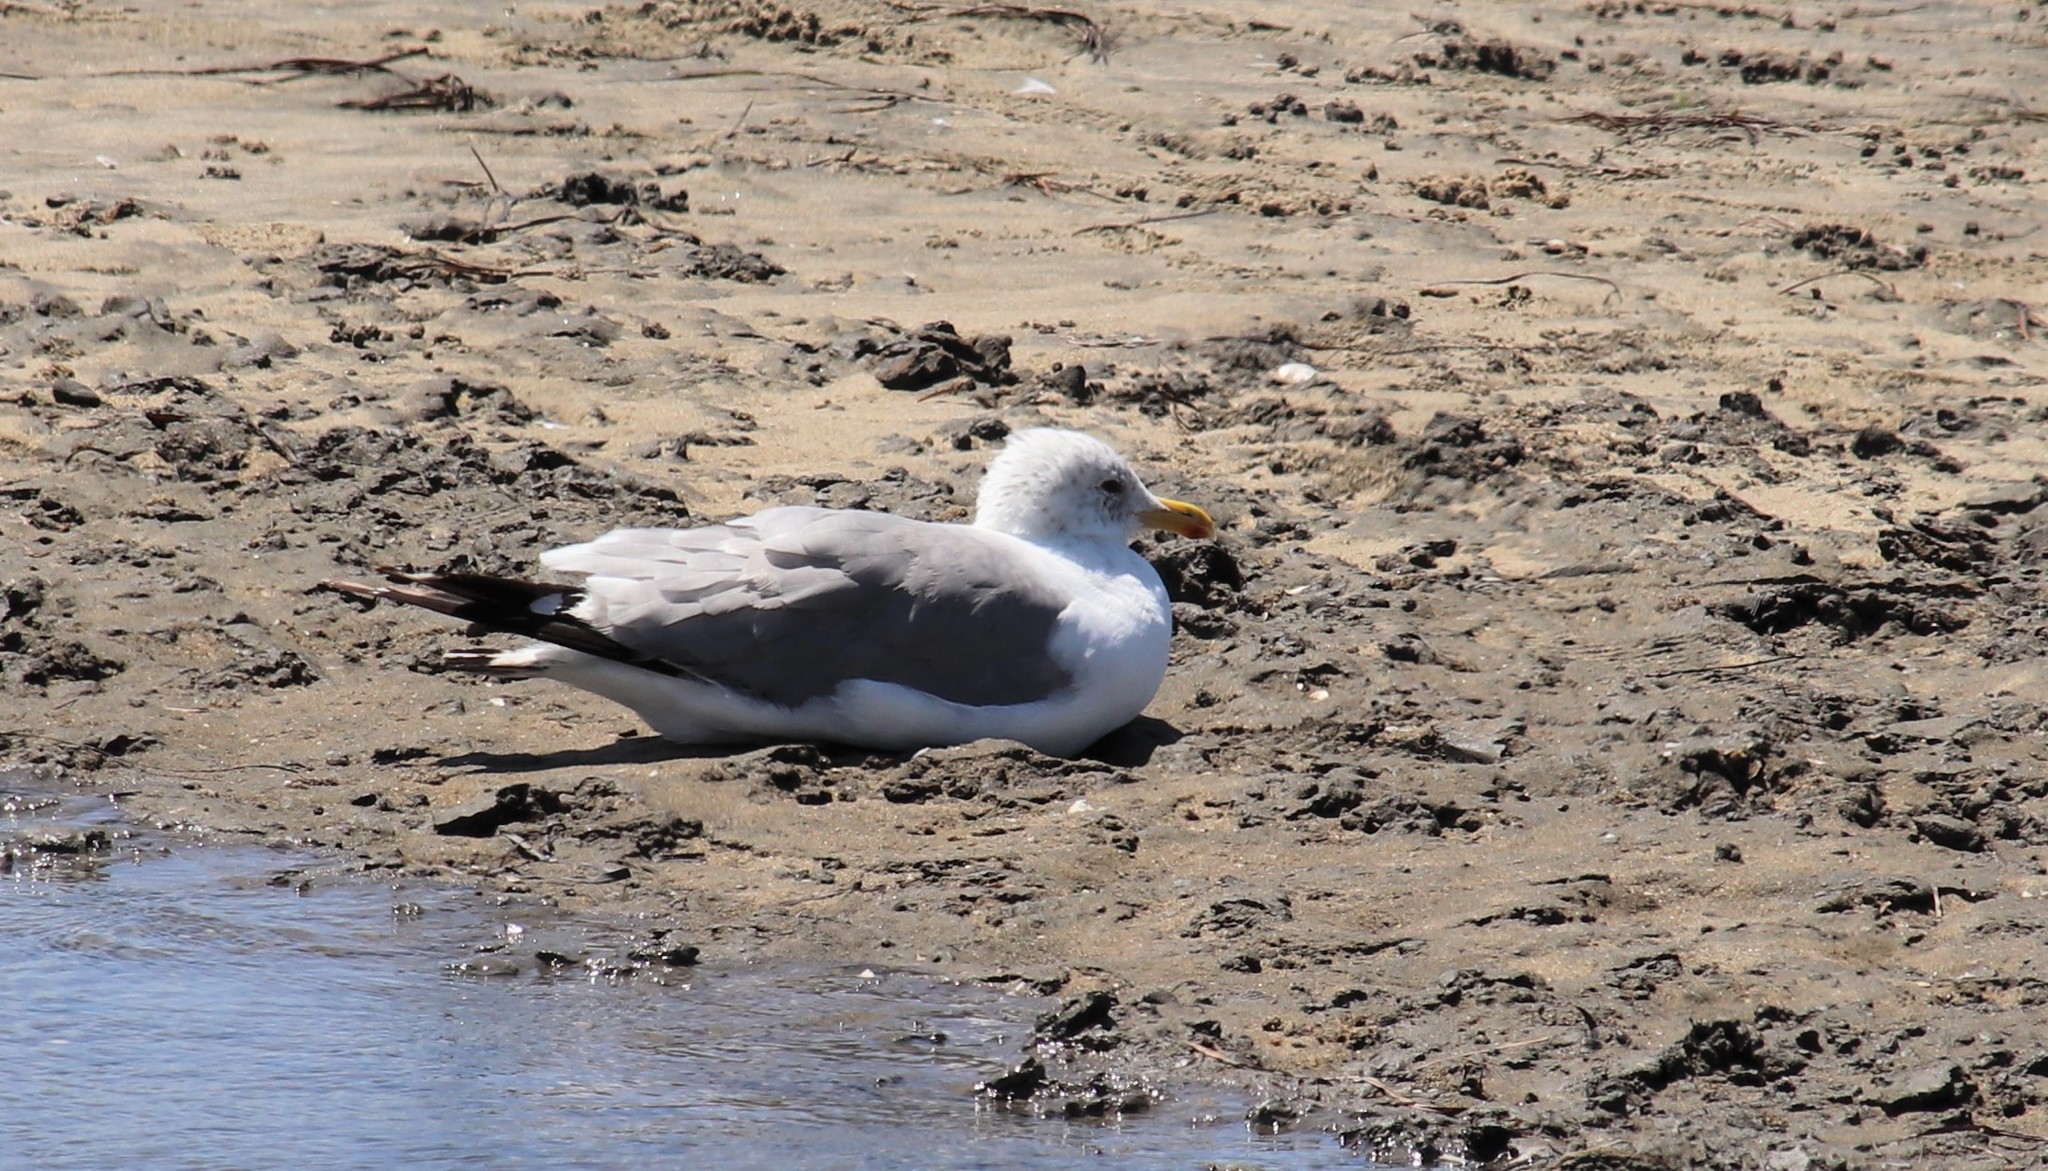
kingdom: Animalia
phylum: Chordata
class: Aves
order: Charadriiformes
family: Laridae
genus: Larus
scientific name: Larus occidentalis
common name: Western gull
